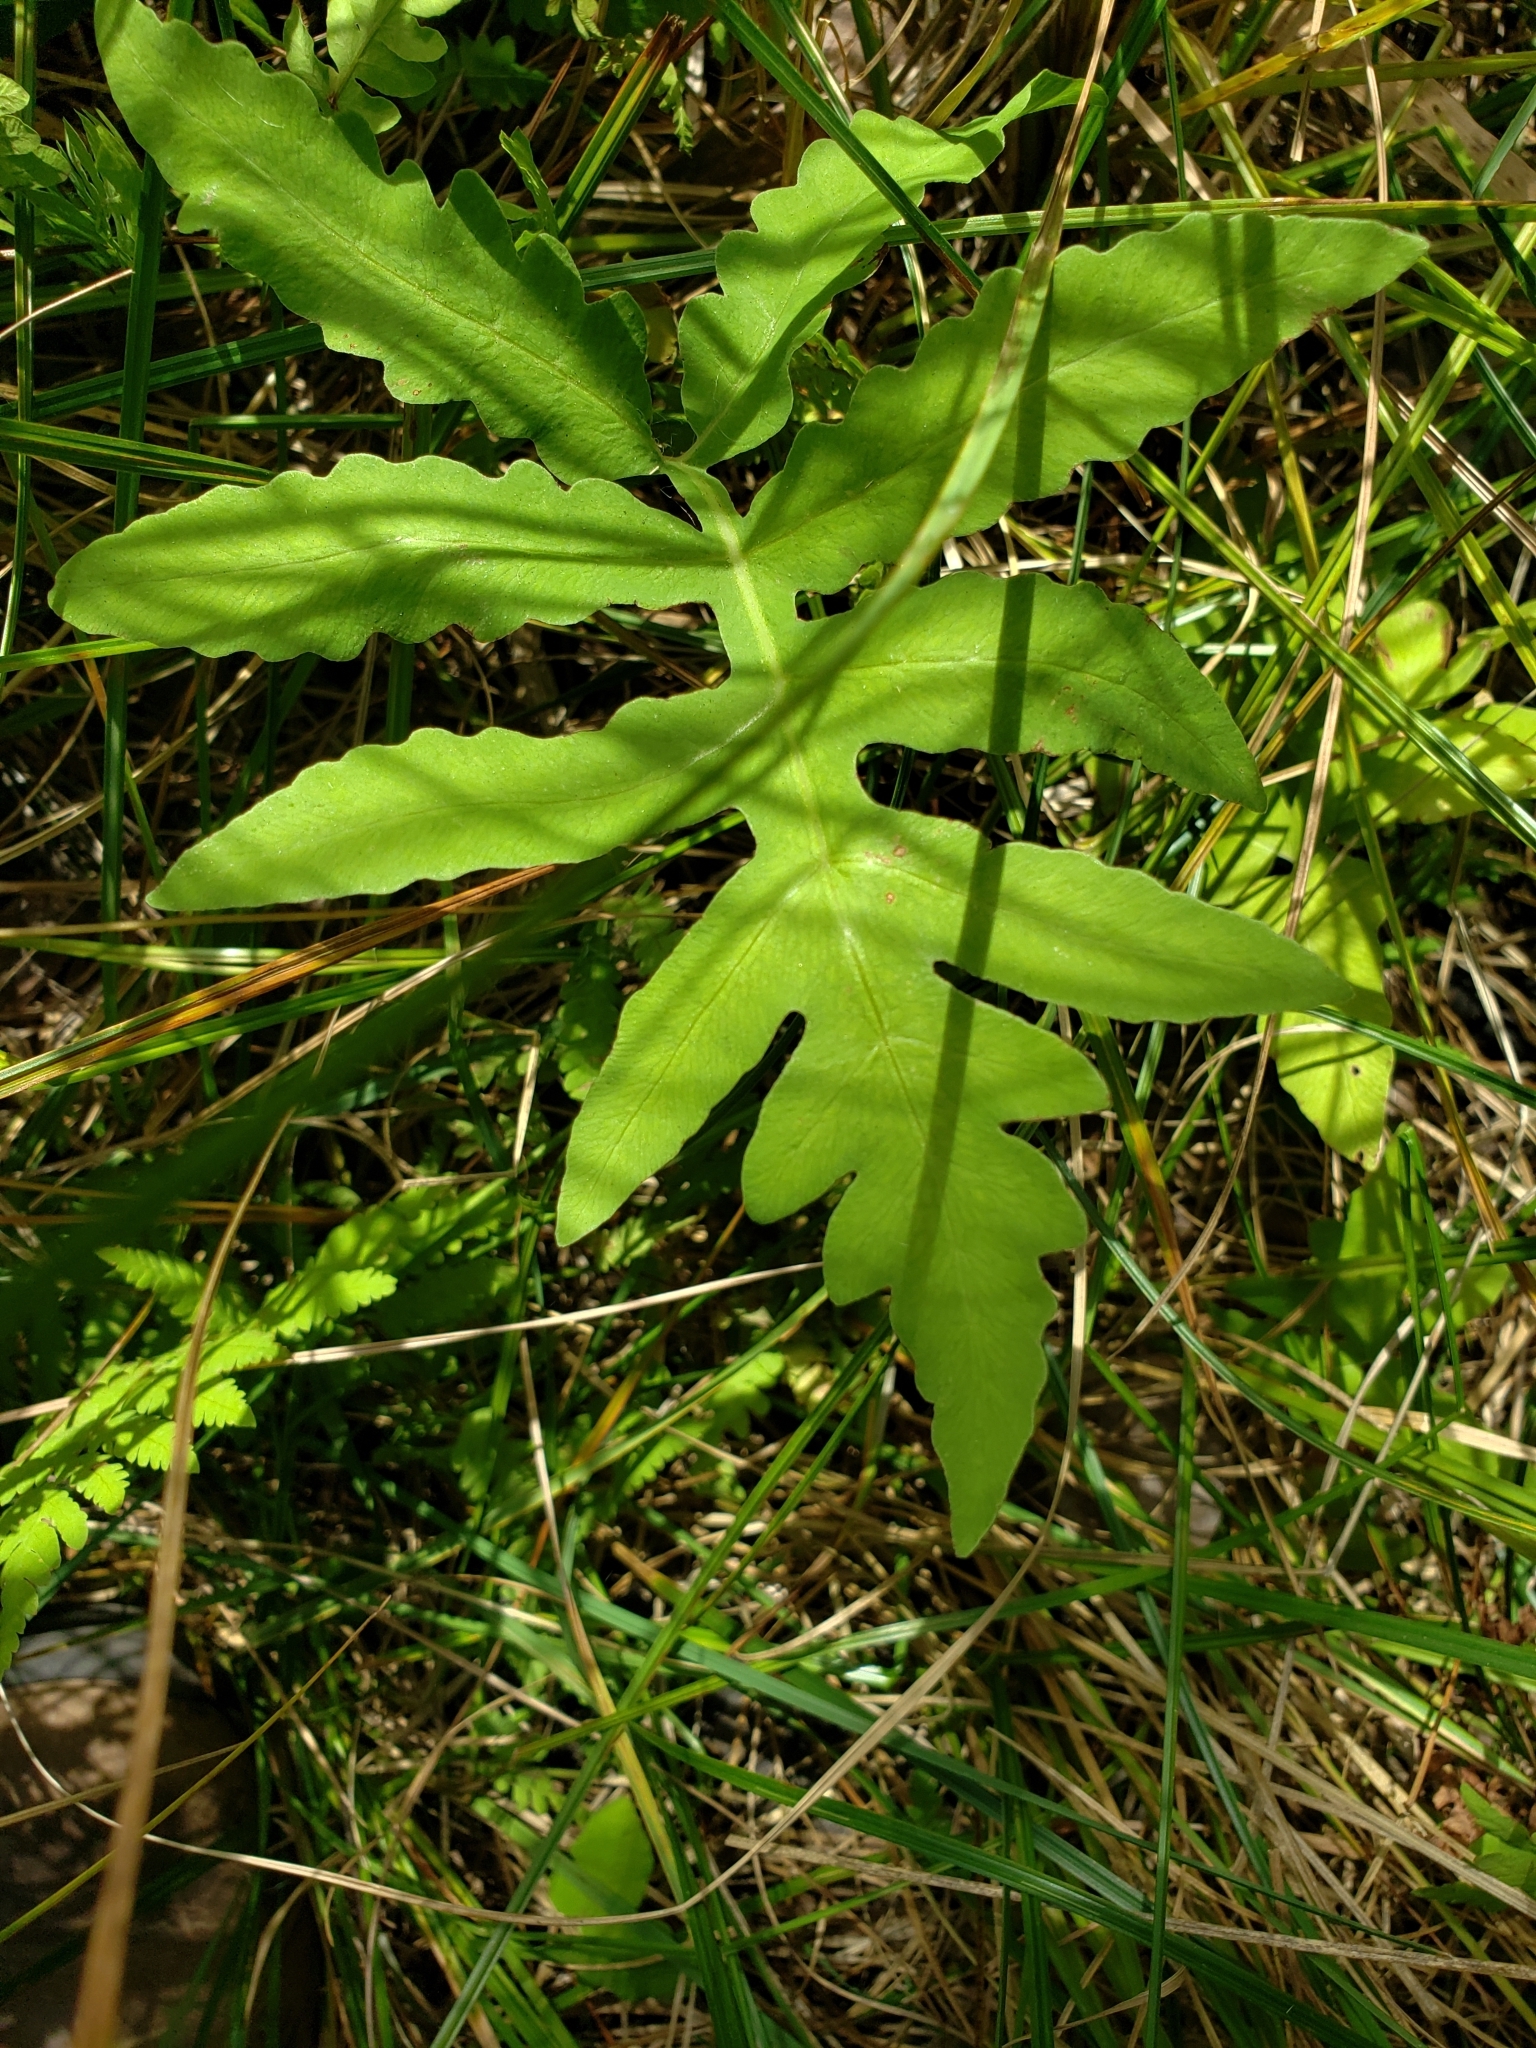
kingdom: Plantae
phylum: Tracheophyta
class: Polypodiopsida
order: Polypodiales
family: Onocleaceae
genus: Onoclea
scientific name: Onoclea sensibilis
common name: Sensitive fern
